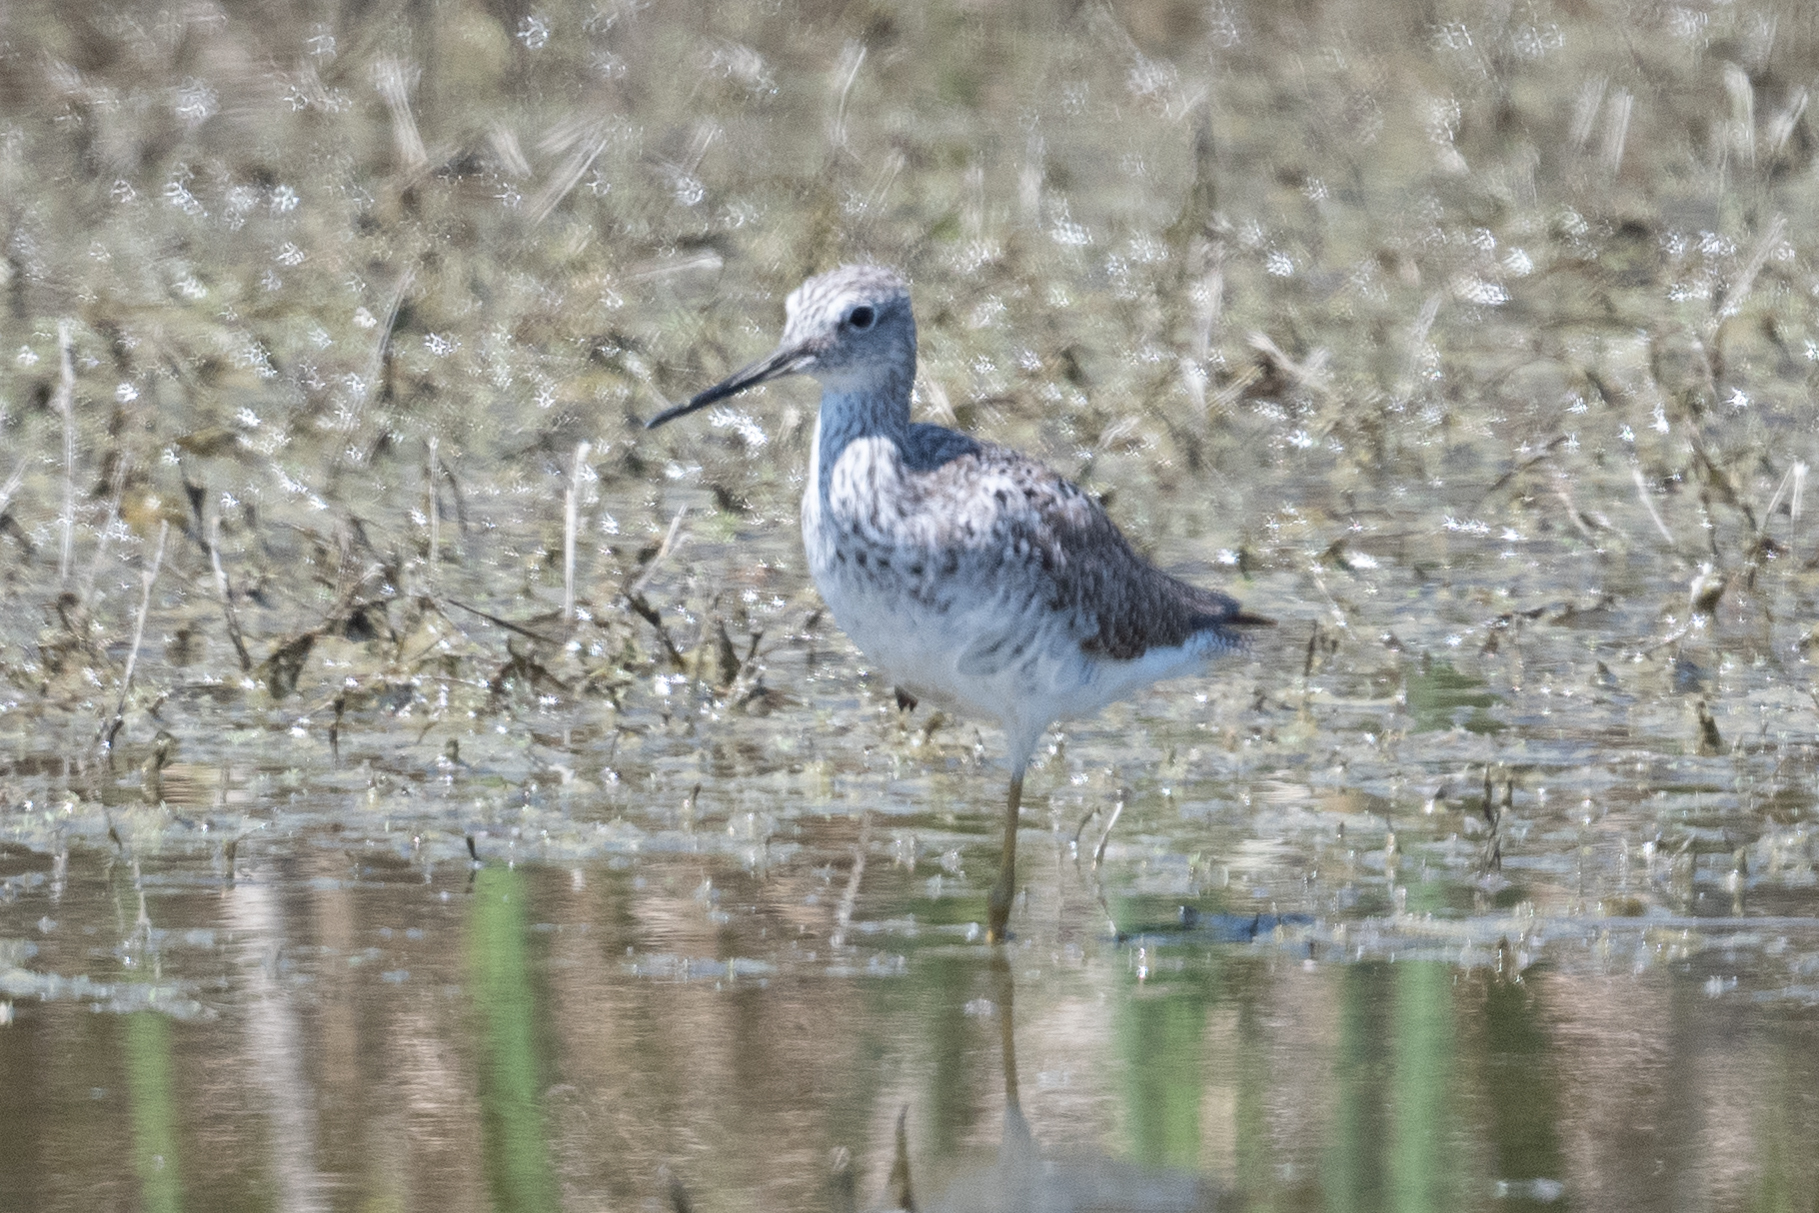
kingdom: Animalia
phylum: Chordata
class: Aves
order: Charadriiformes
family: Scolopacidae
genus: Tringa
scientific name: Tringa melanoleuca
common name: Greater yellowlegs
